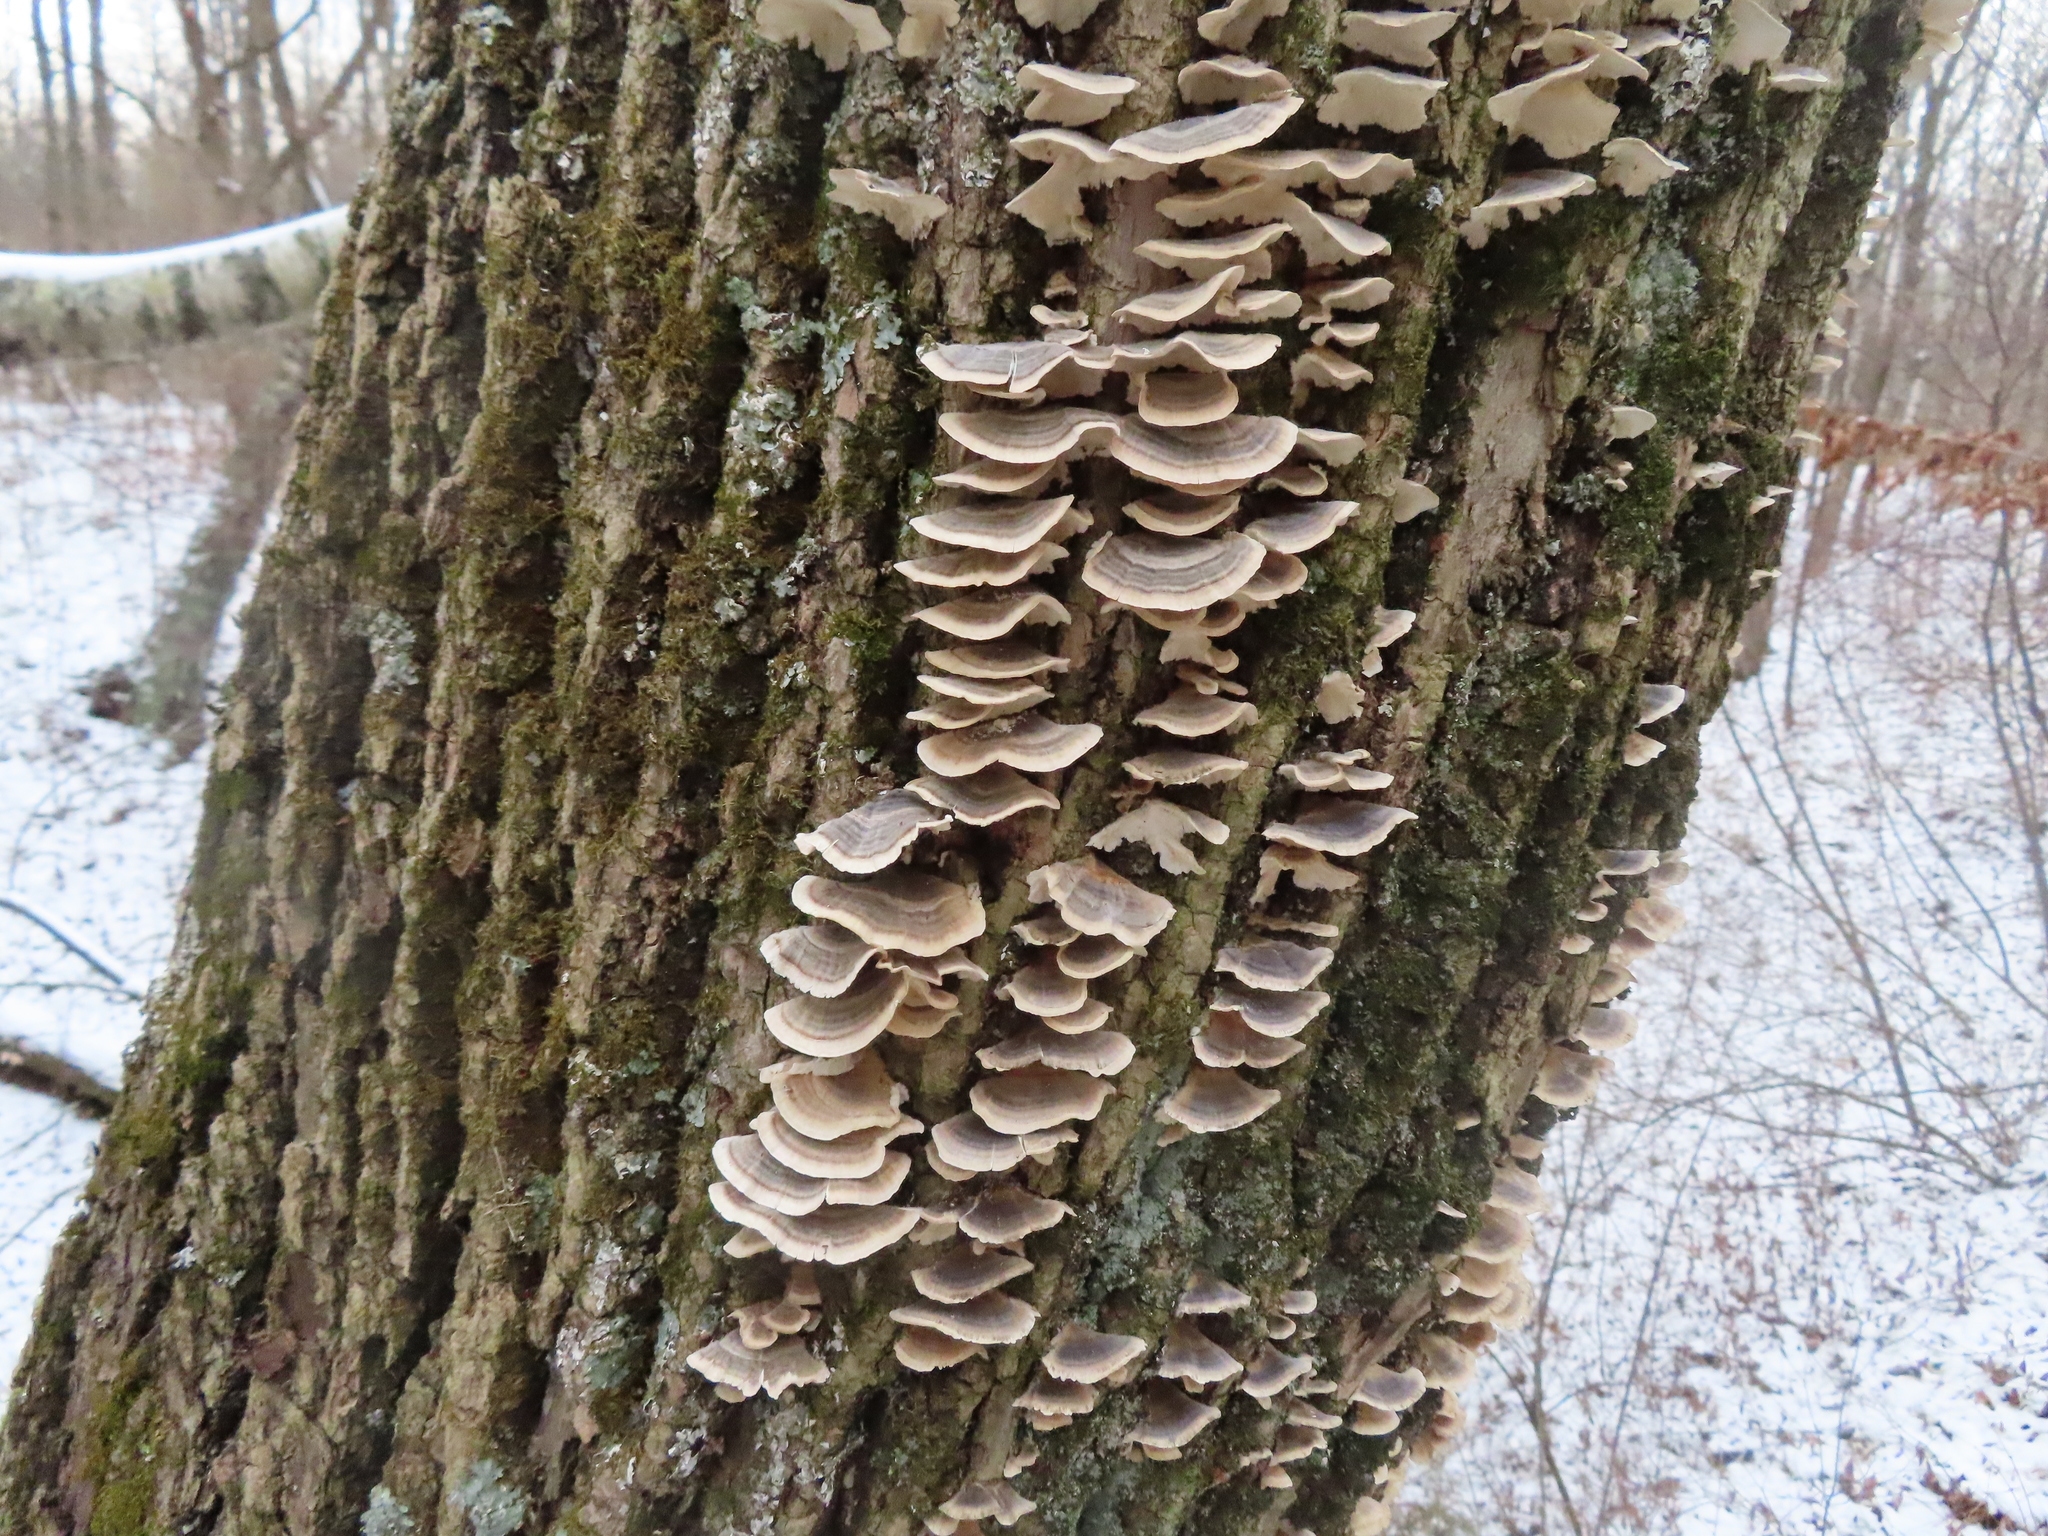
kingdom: Fungi
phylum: Basidiomycota
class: Agaricomycetes
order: Polyporales
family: Polyporaceae
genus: Trametes
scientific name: Trametes versicolor
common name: Turkeytail
